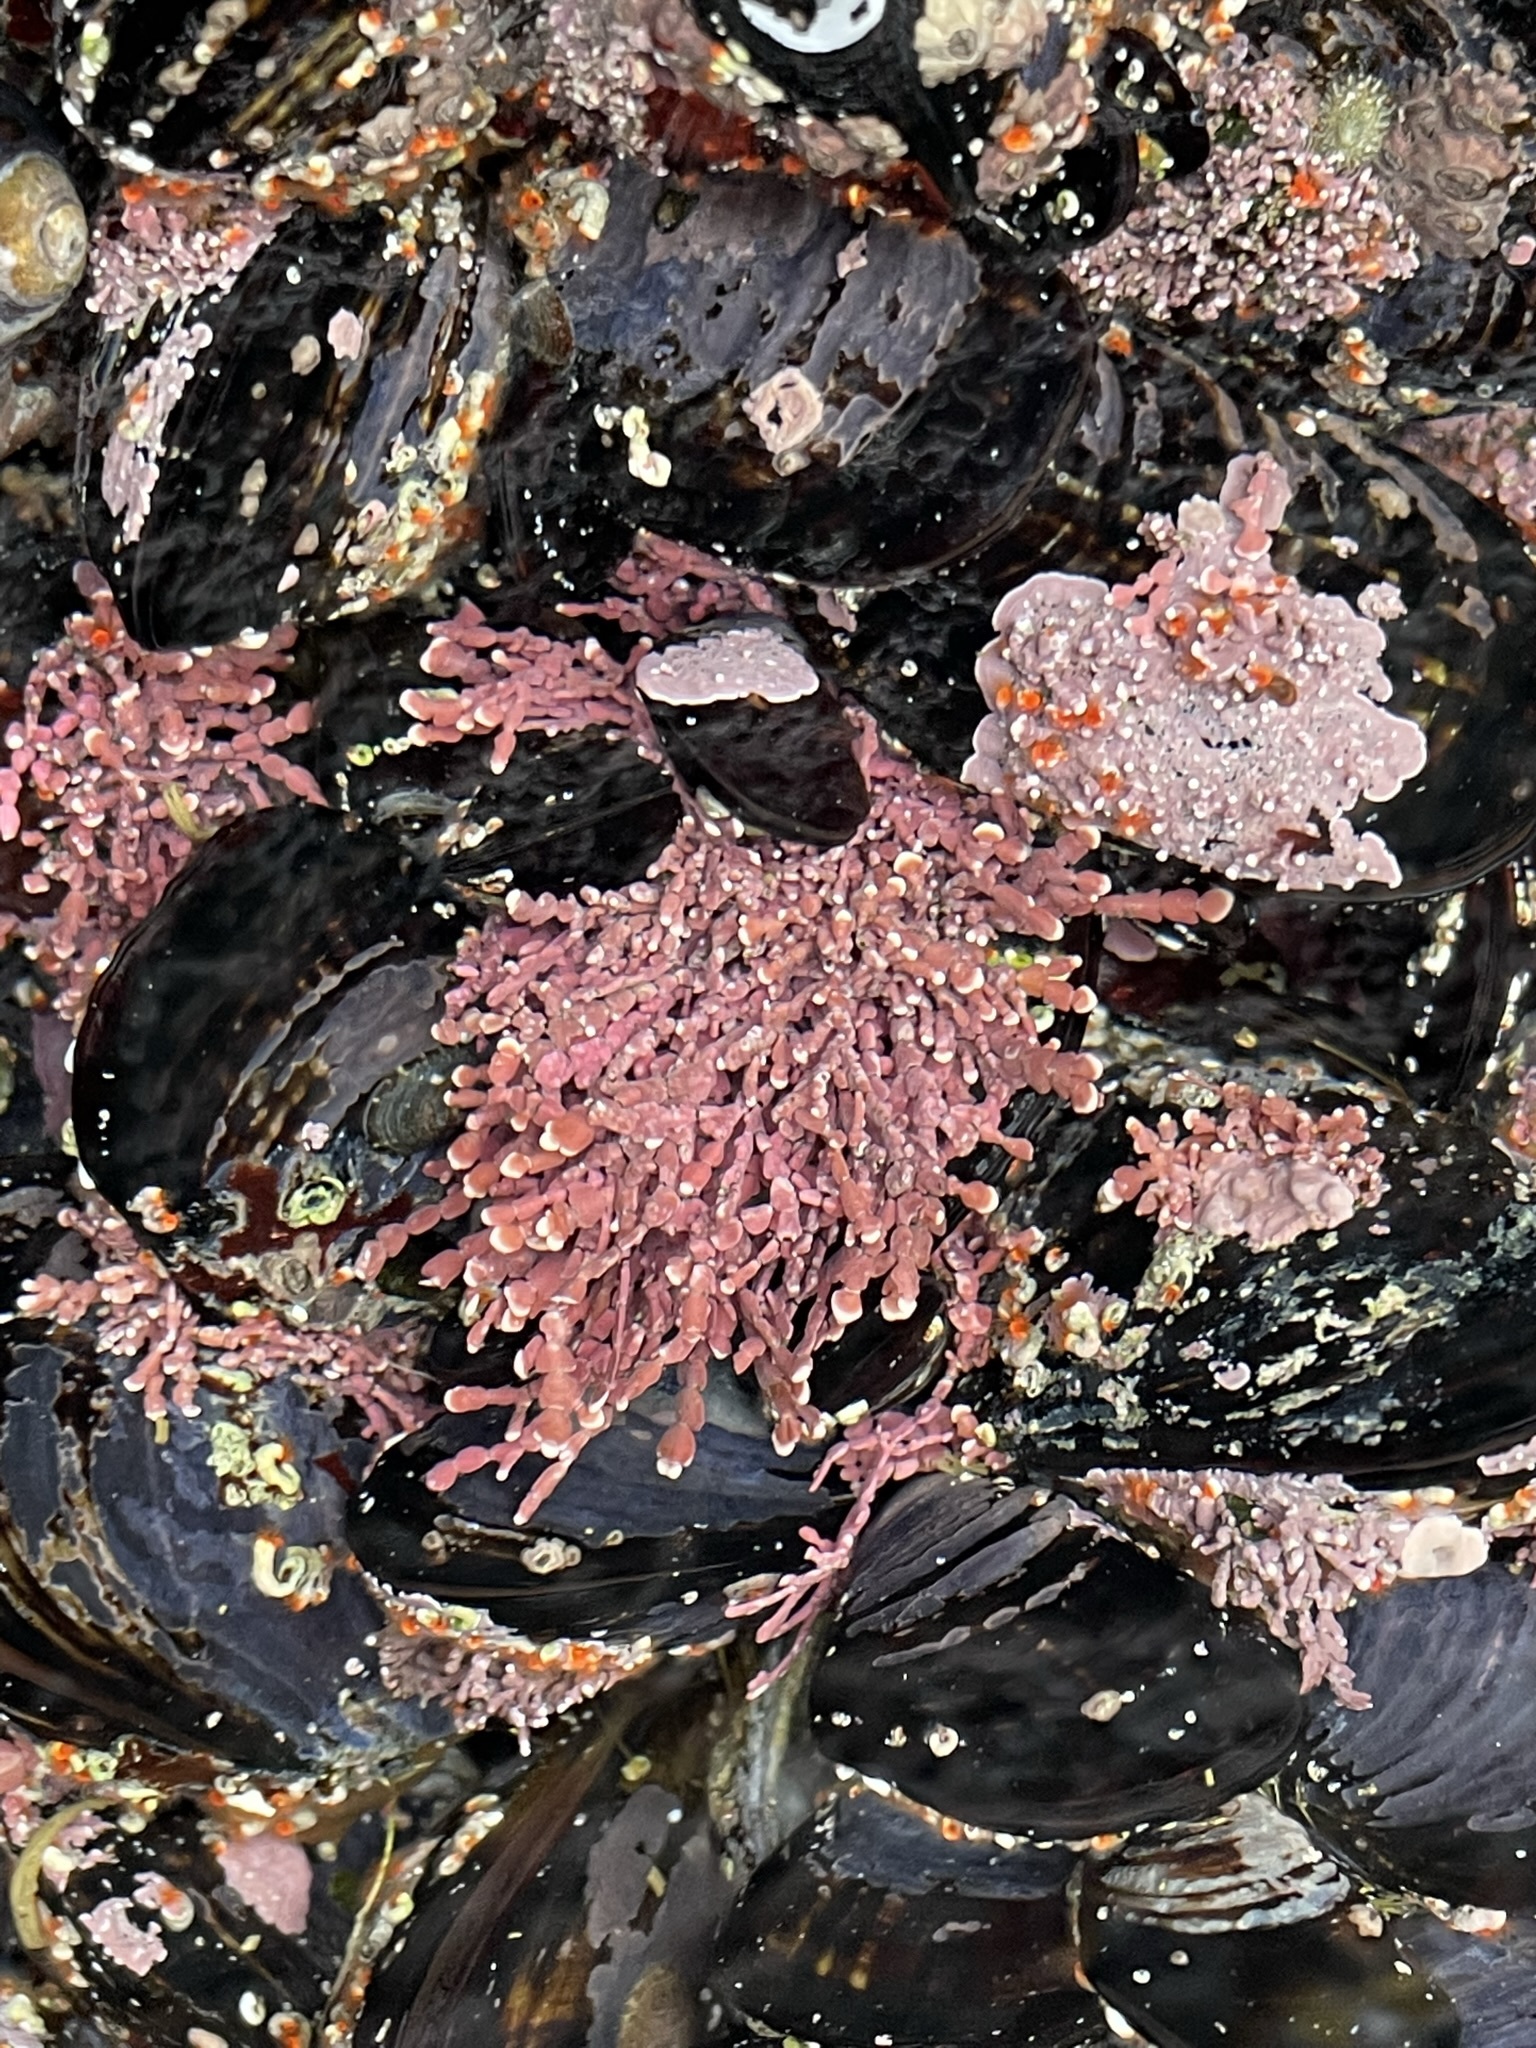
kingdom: Plantae
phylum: Rhodophyta
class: Florideophyceae
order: Corallinales
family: Corallinaceae
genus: Calliarthron
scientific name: Calliarthron tuberculosum
